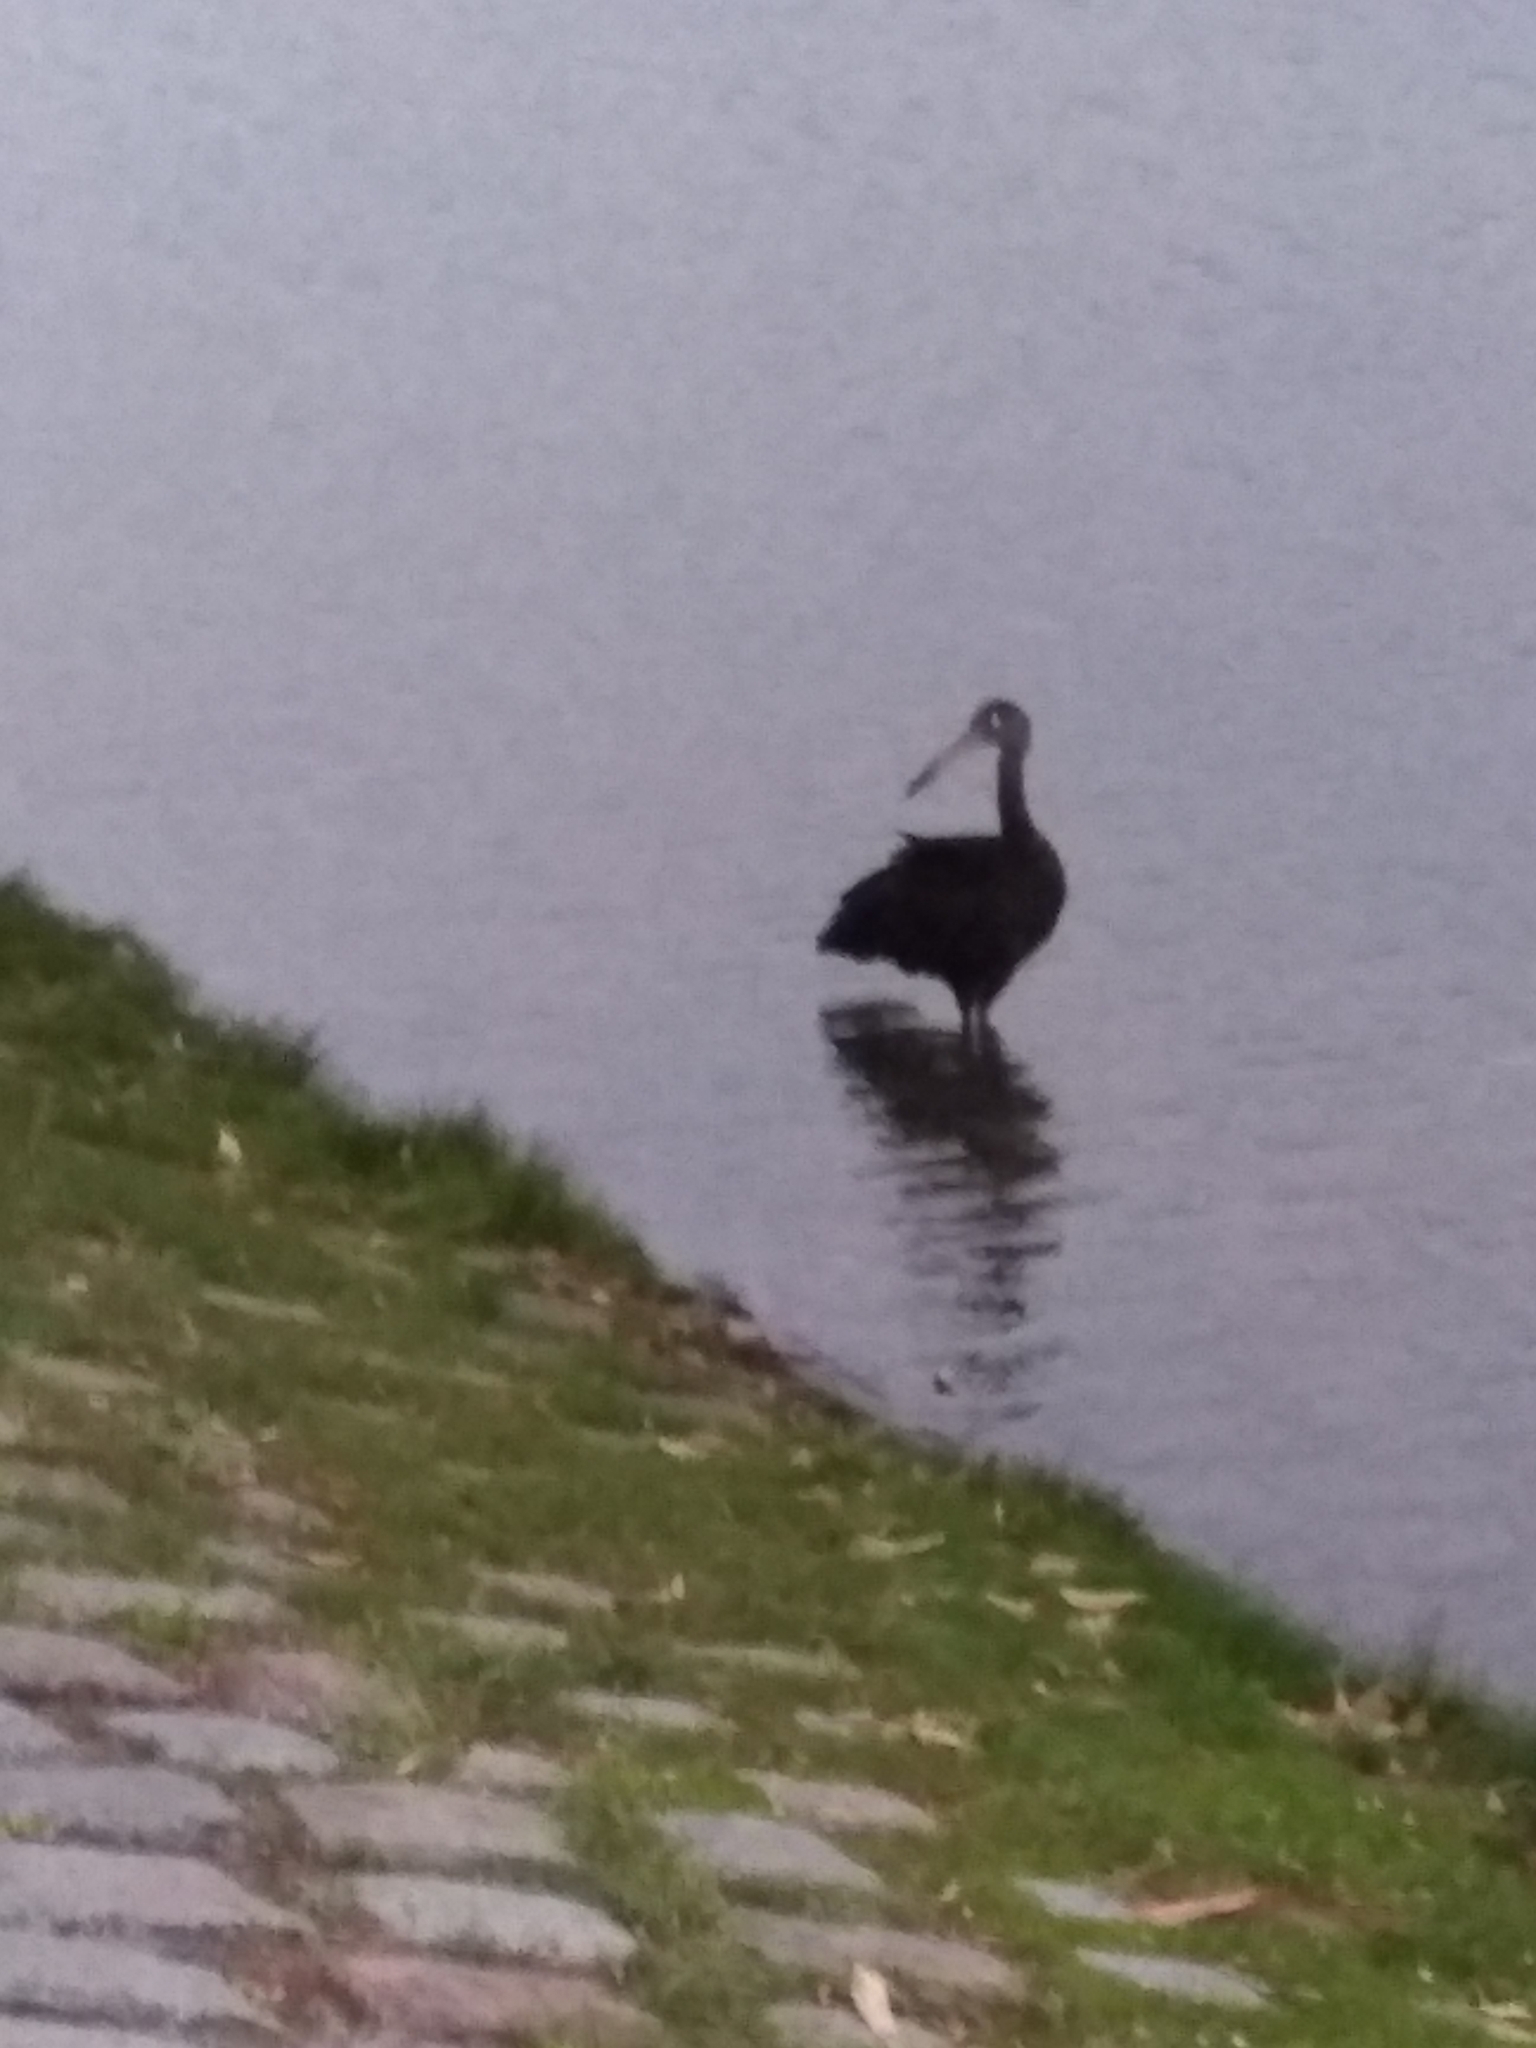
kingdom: Animalia
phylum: Chordata
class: Aves
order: Gruiformes
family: Aramidae
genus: Aramus
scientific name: Aramus guarauna
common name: Limpkin
